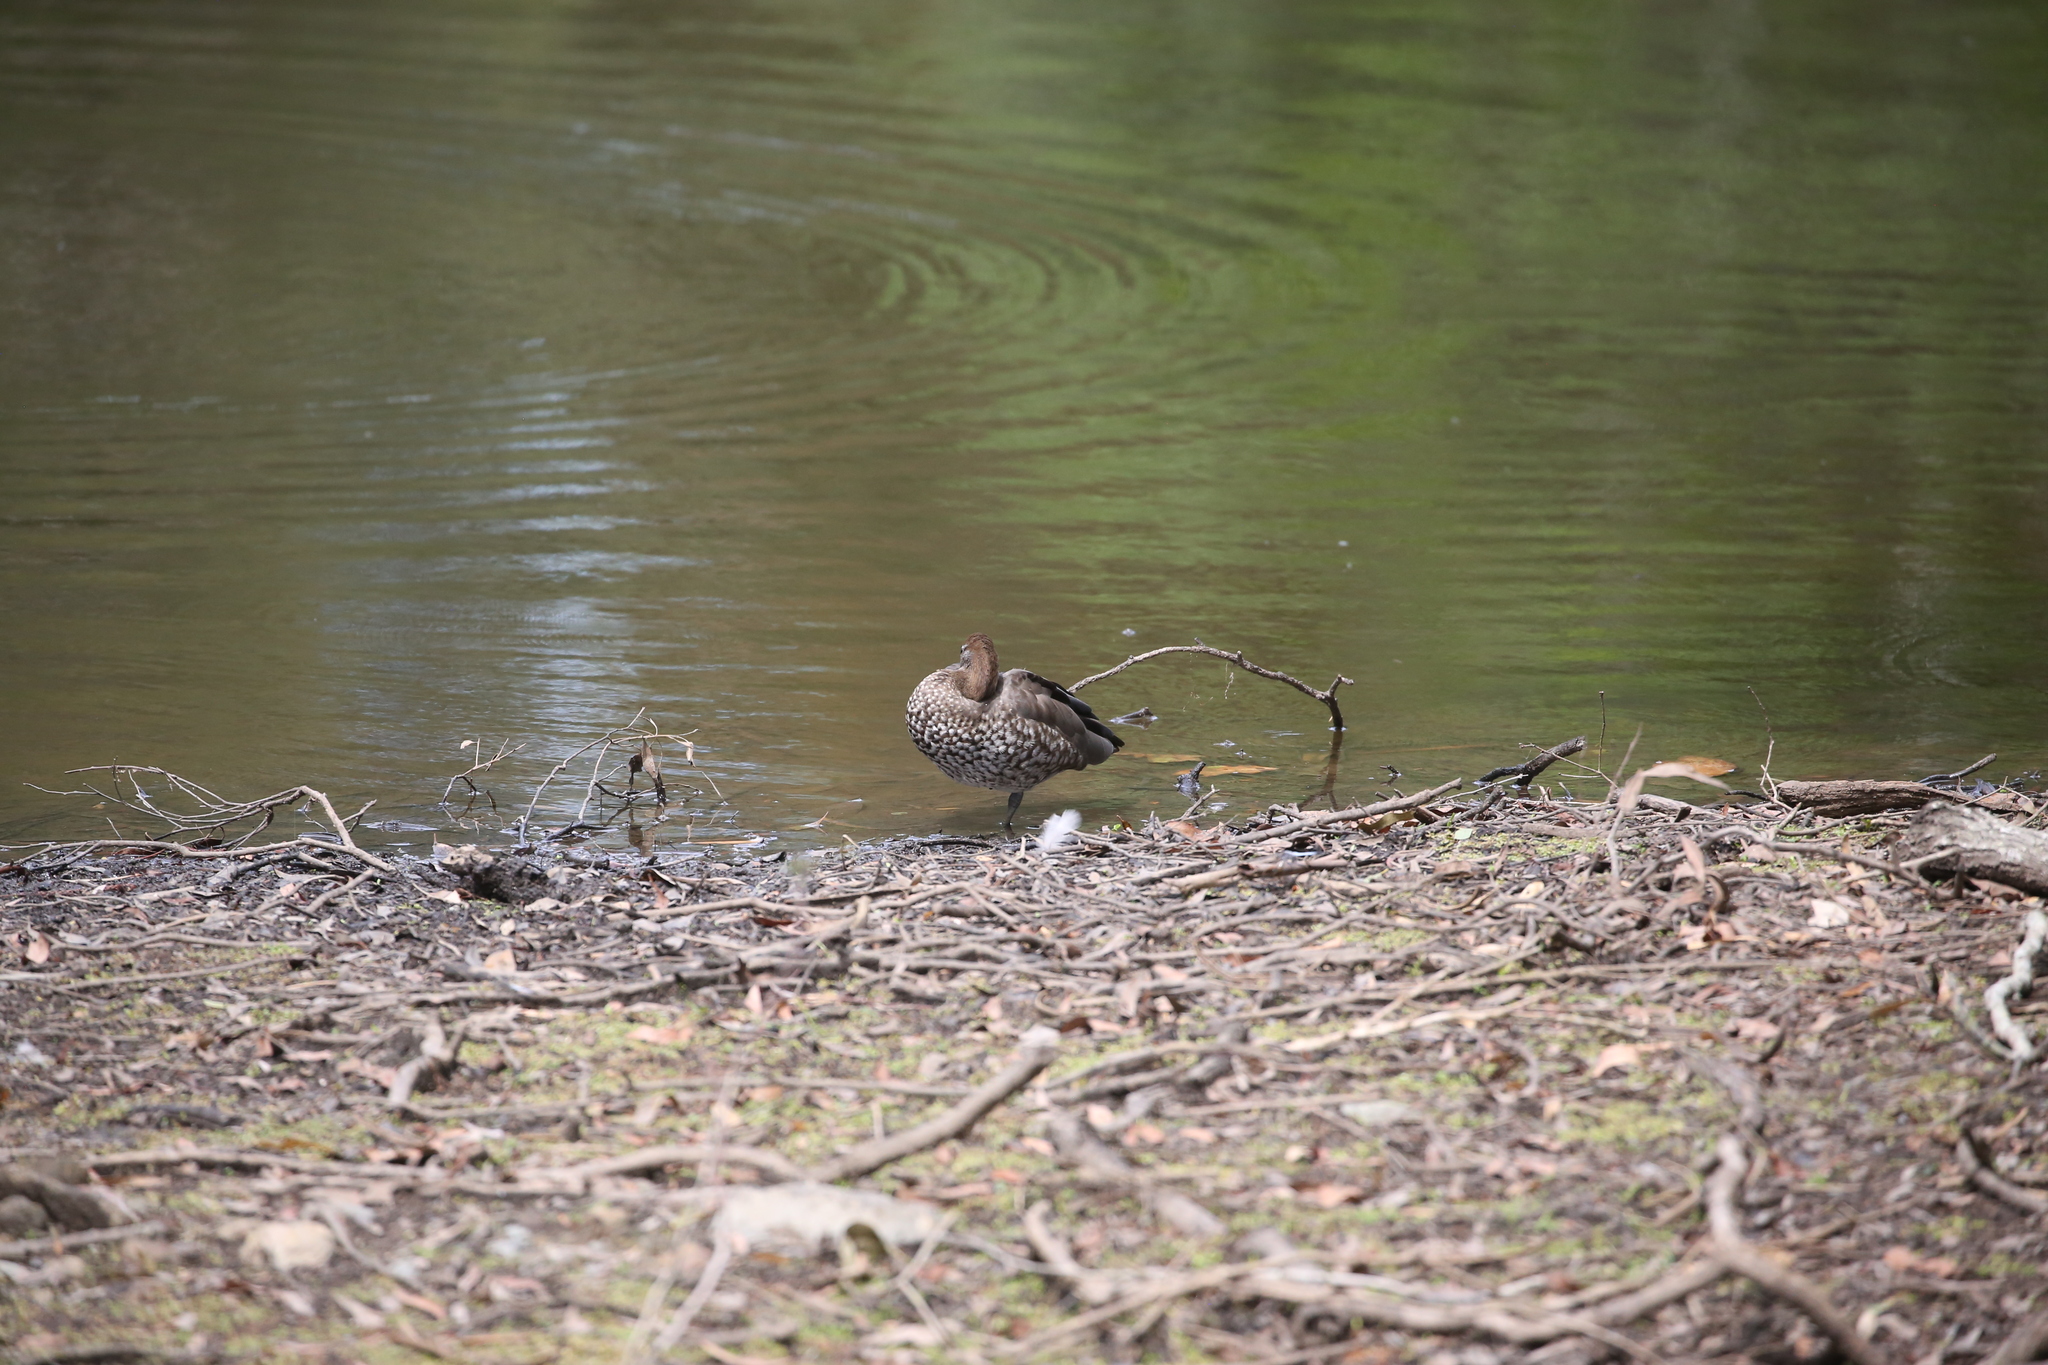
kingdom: Animalia
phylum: Chordata
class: Aves
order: Anseriformes
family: Anatidae
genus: Chenonetta
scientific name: Chenonetta jubata
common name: Maned duck
